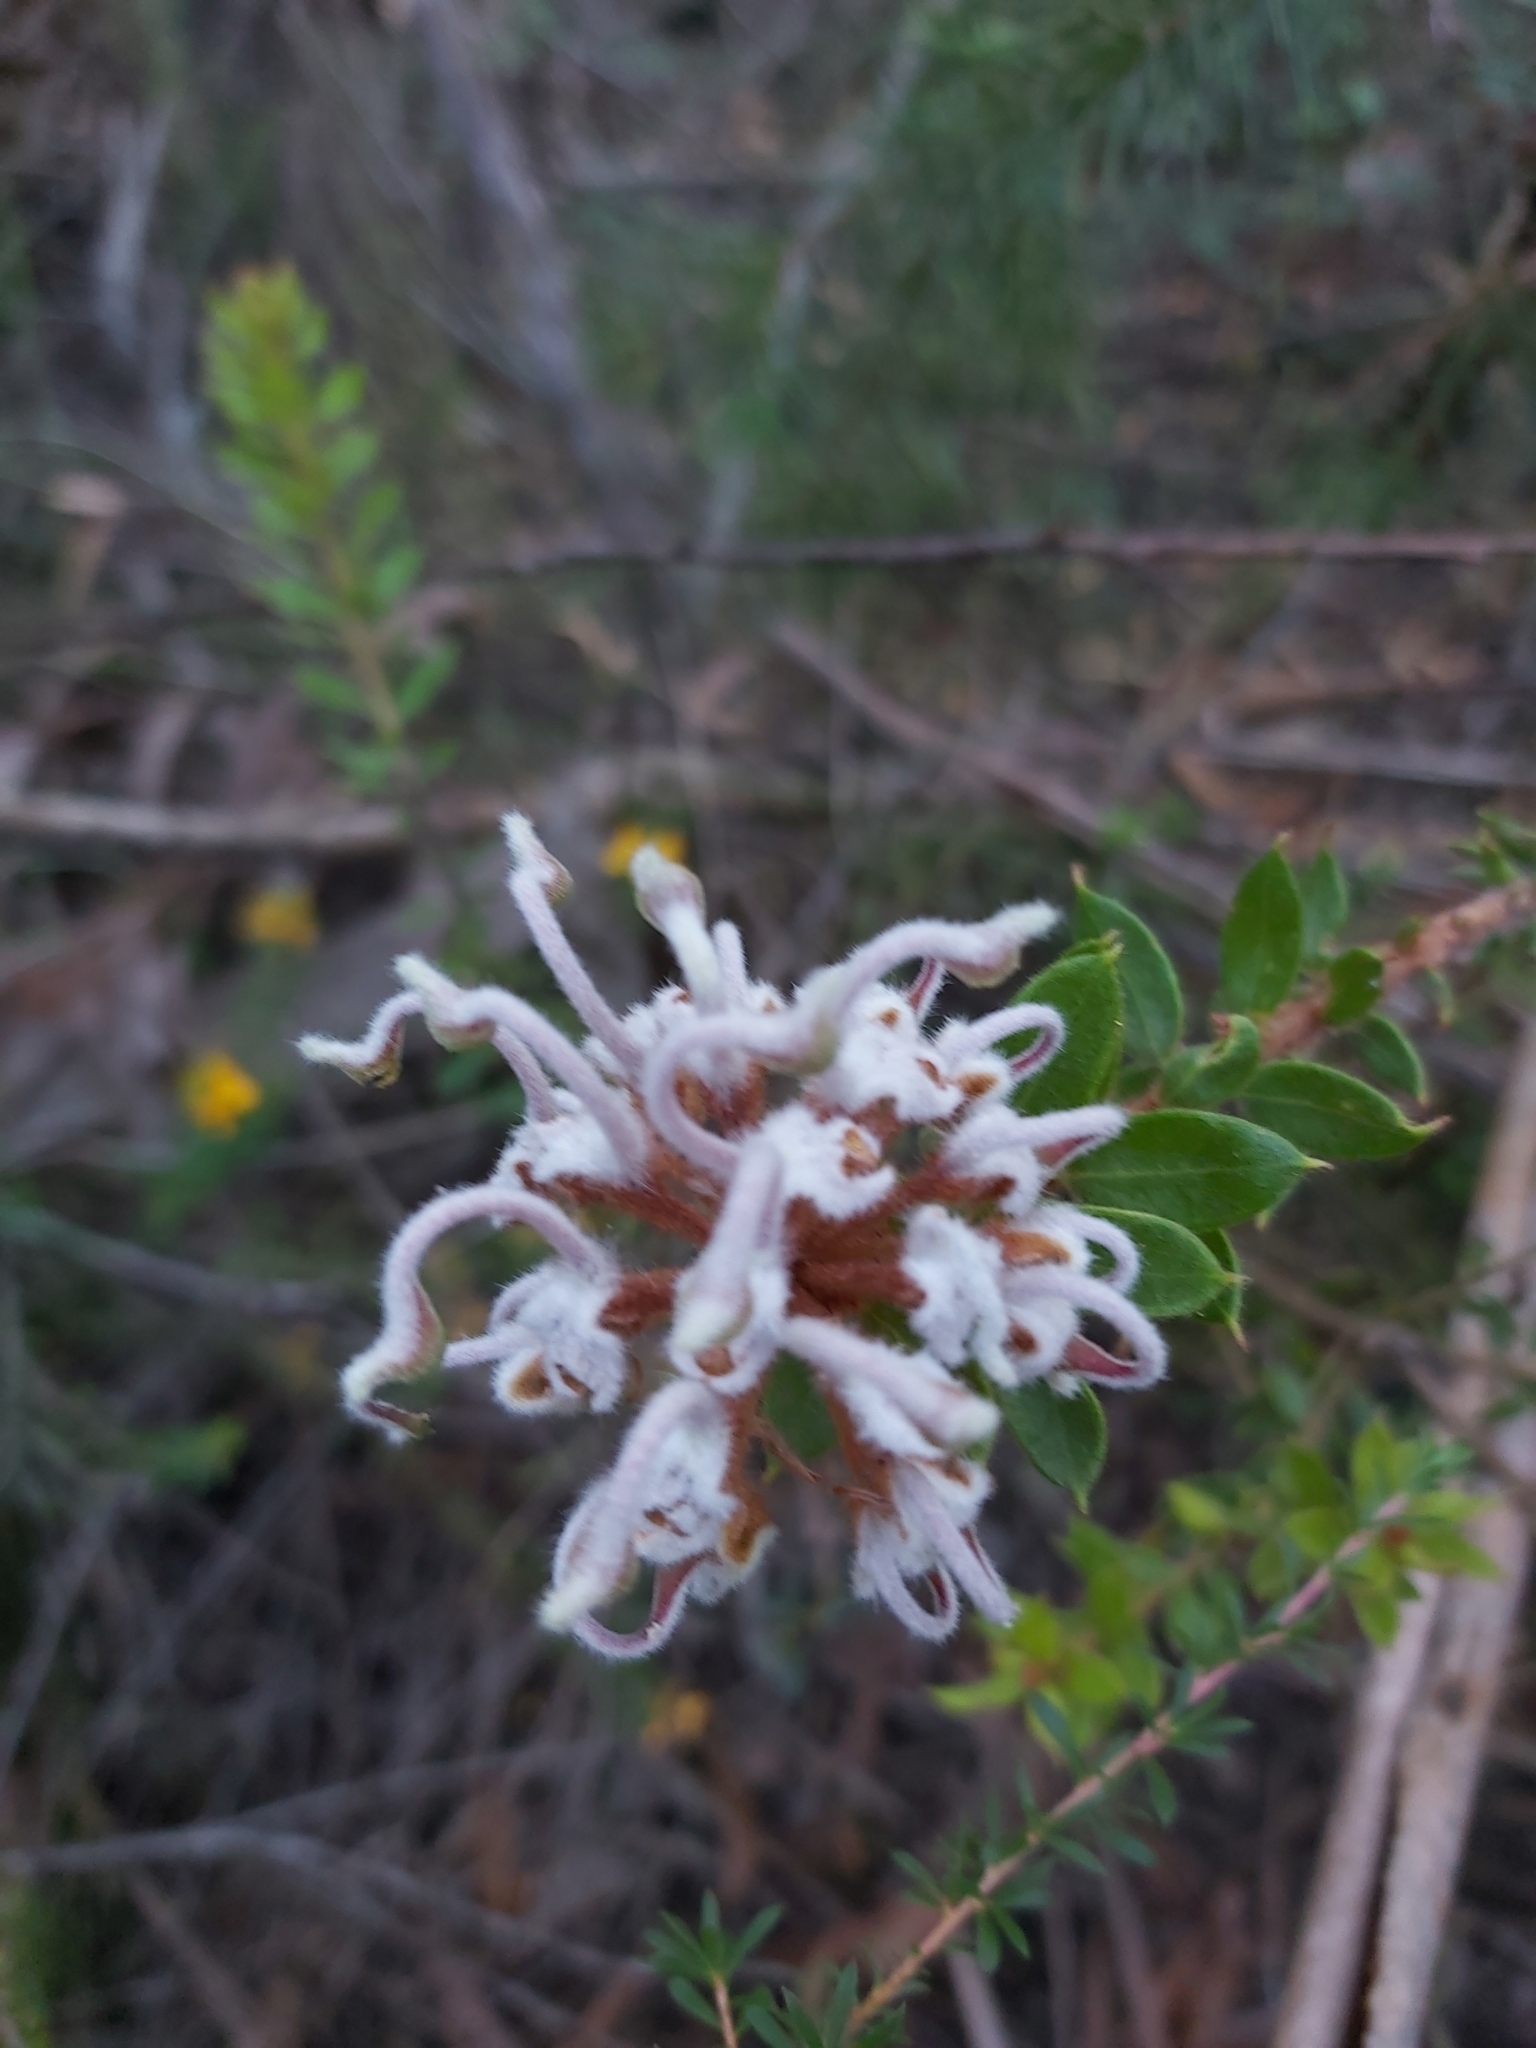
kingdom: Plantae
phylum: Tracheophyta
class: Magnoliopsida
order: Proteales
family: Proteaceae
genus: Grevillea
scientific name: Grevillea buxifolia
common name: Grey spiderflower
